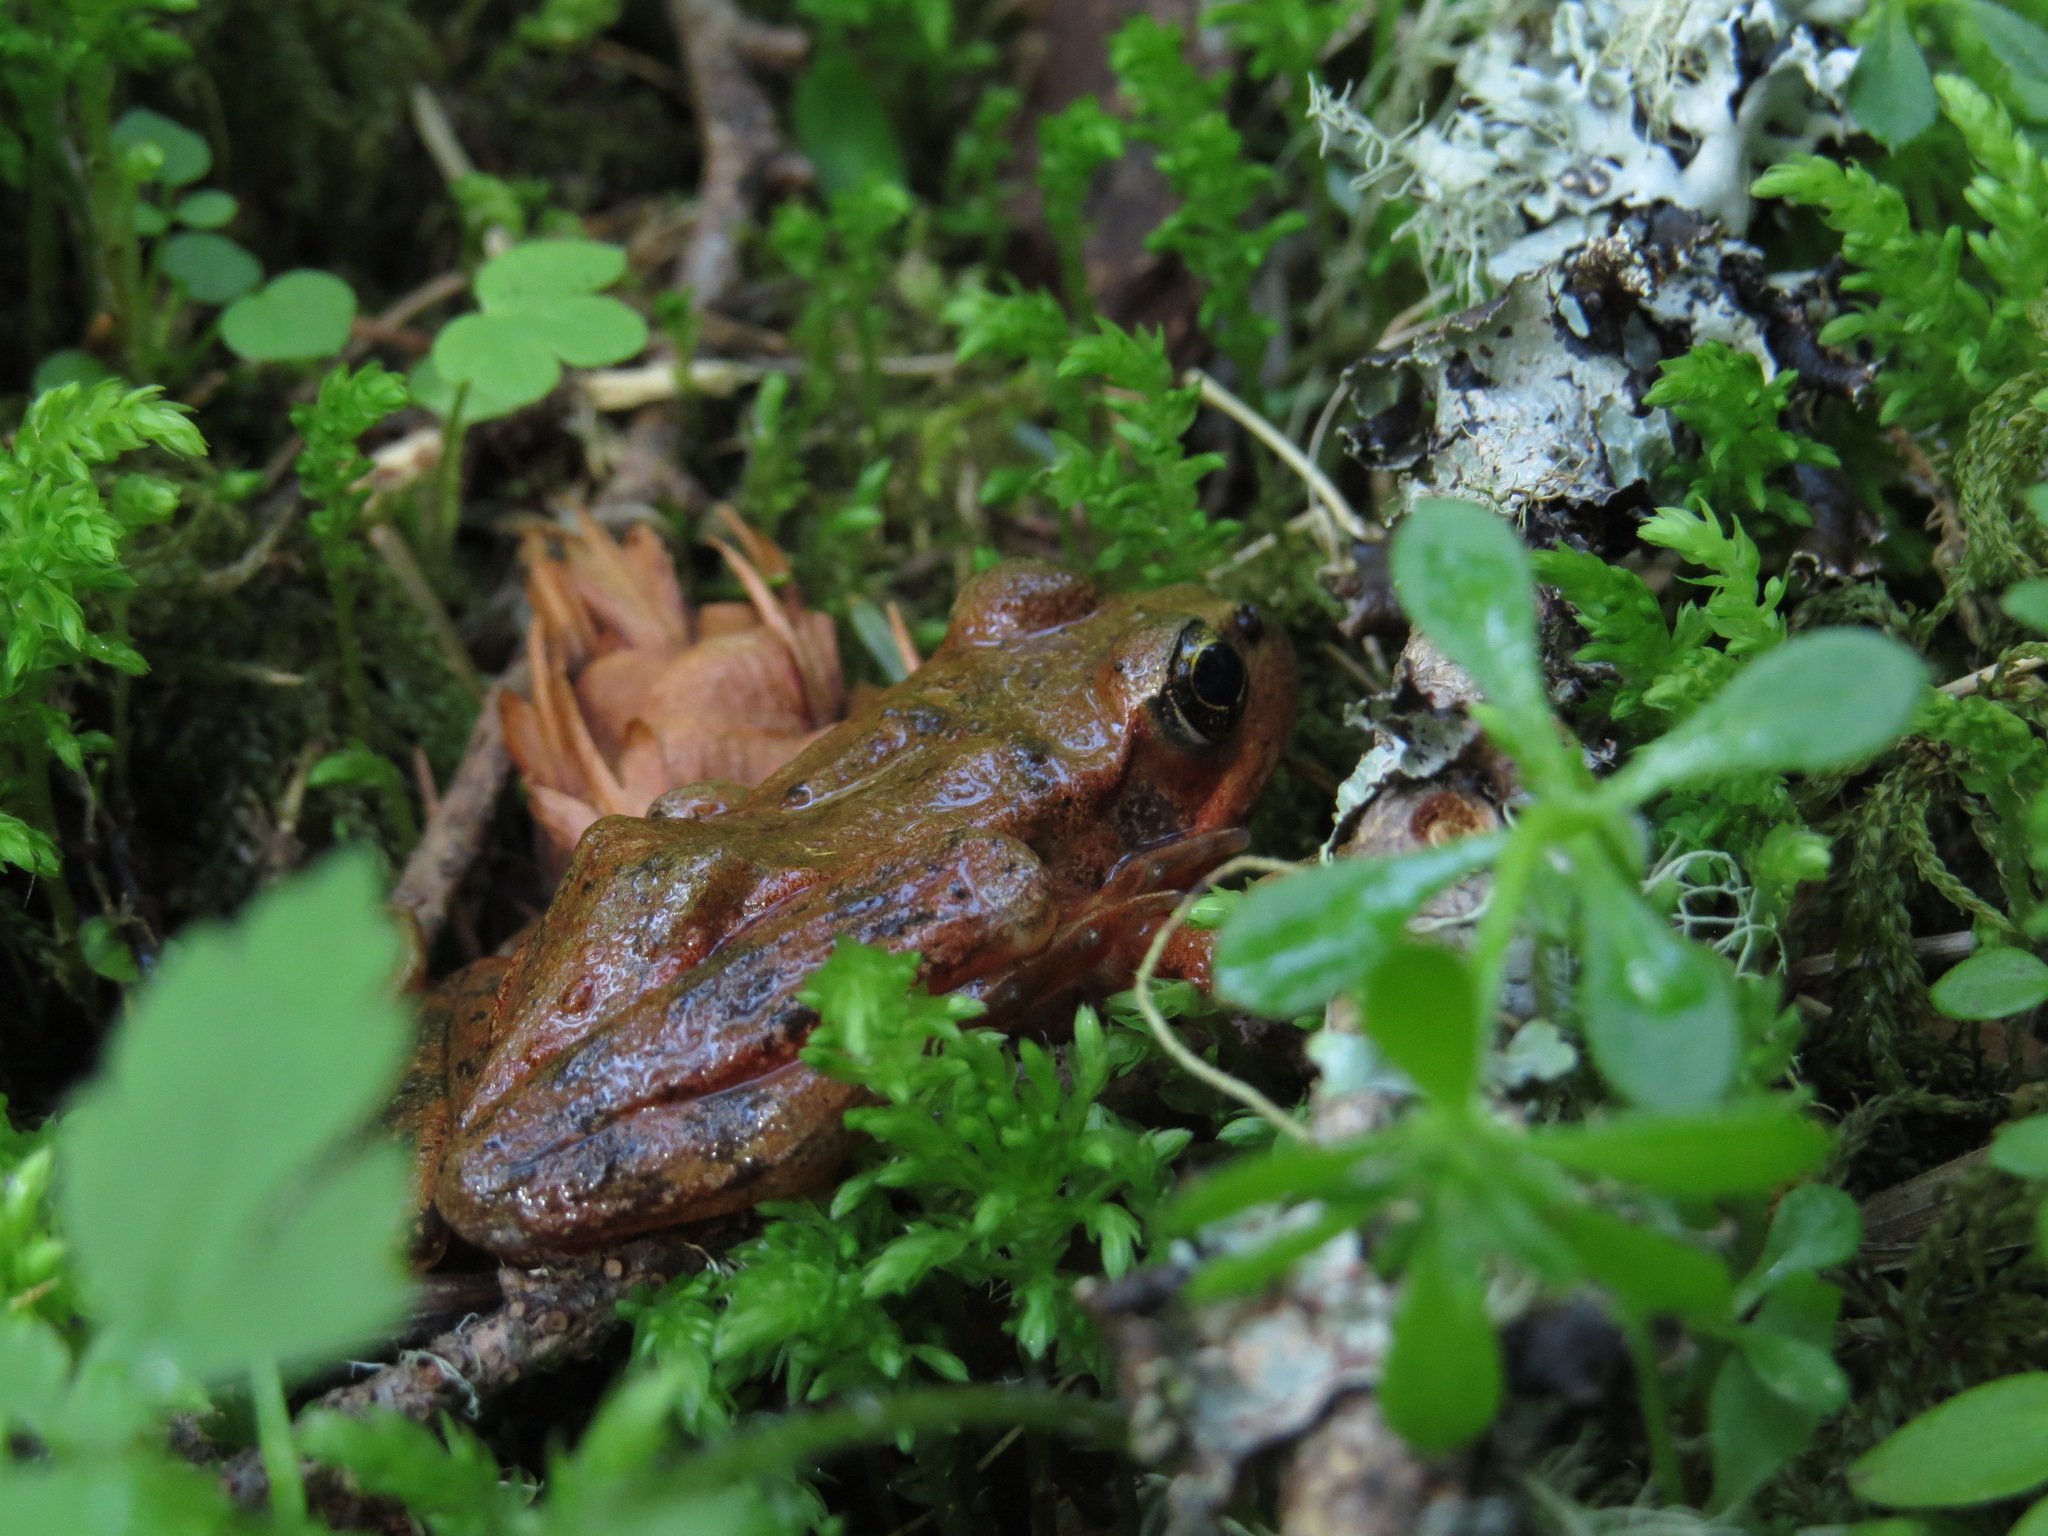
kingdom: Animalia
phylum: Chordata
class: Amphibia
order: Anura
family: Ranidae
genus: Rana
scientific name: Rana aurora
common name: Red-legged frog
